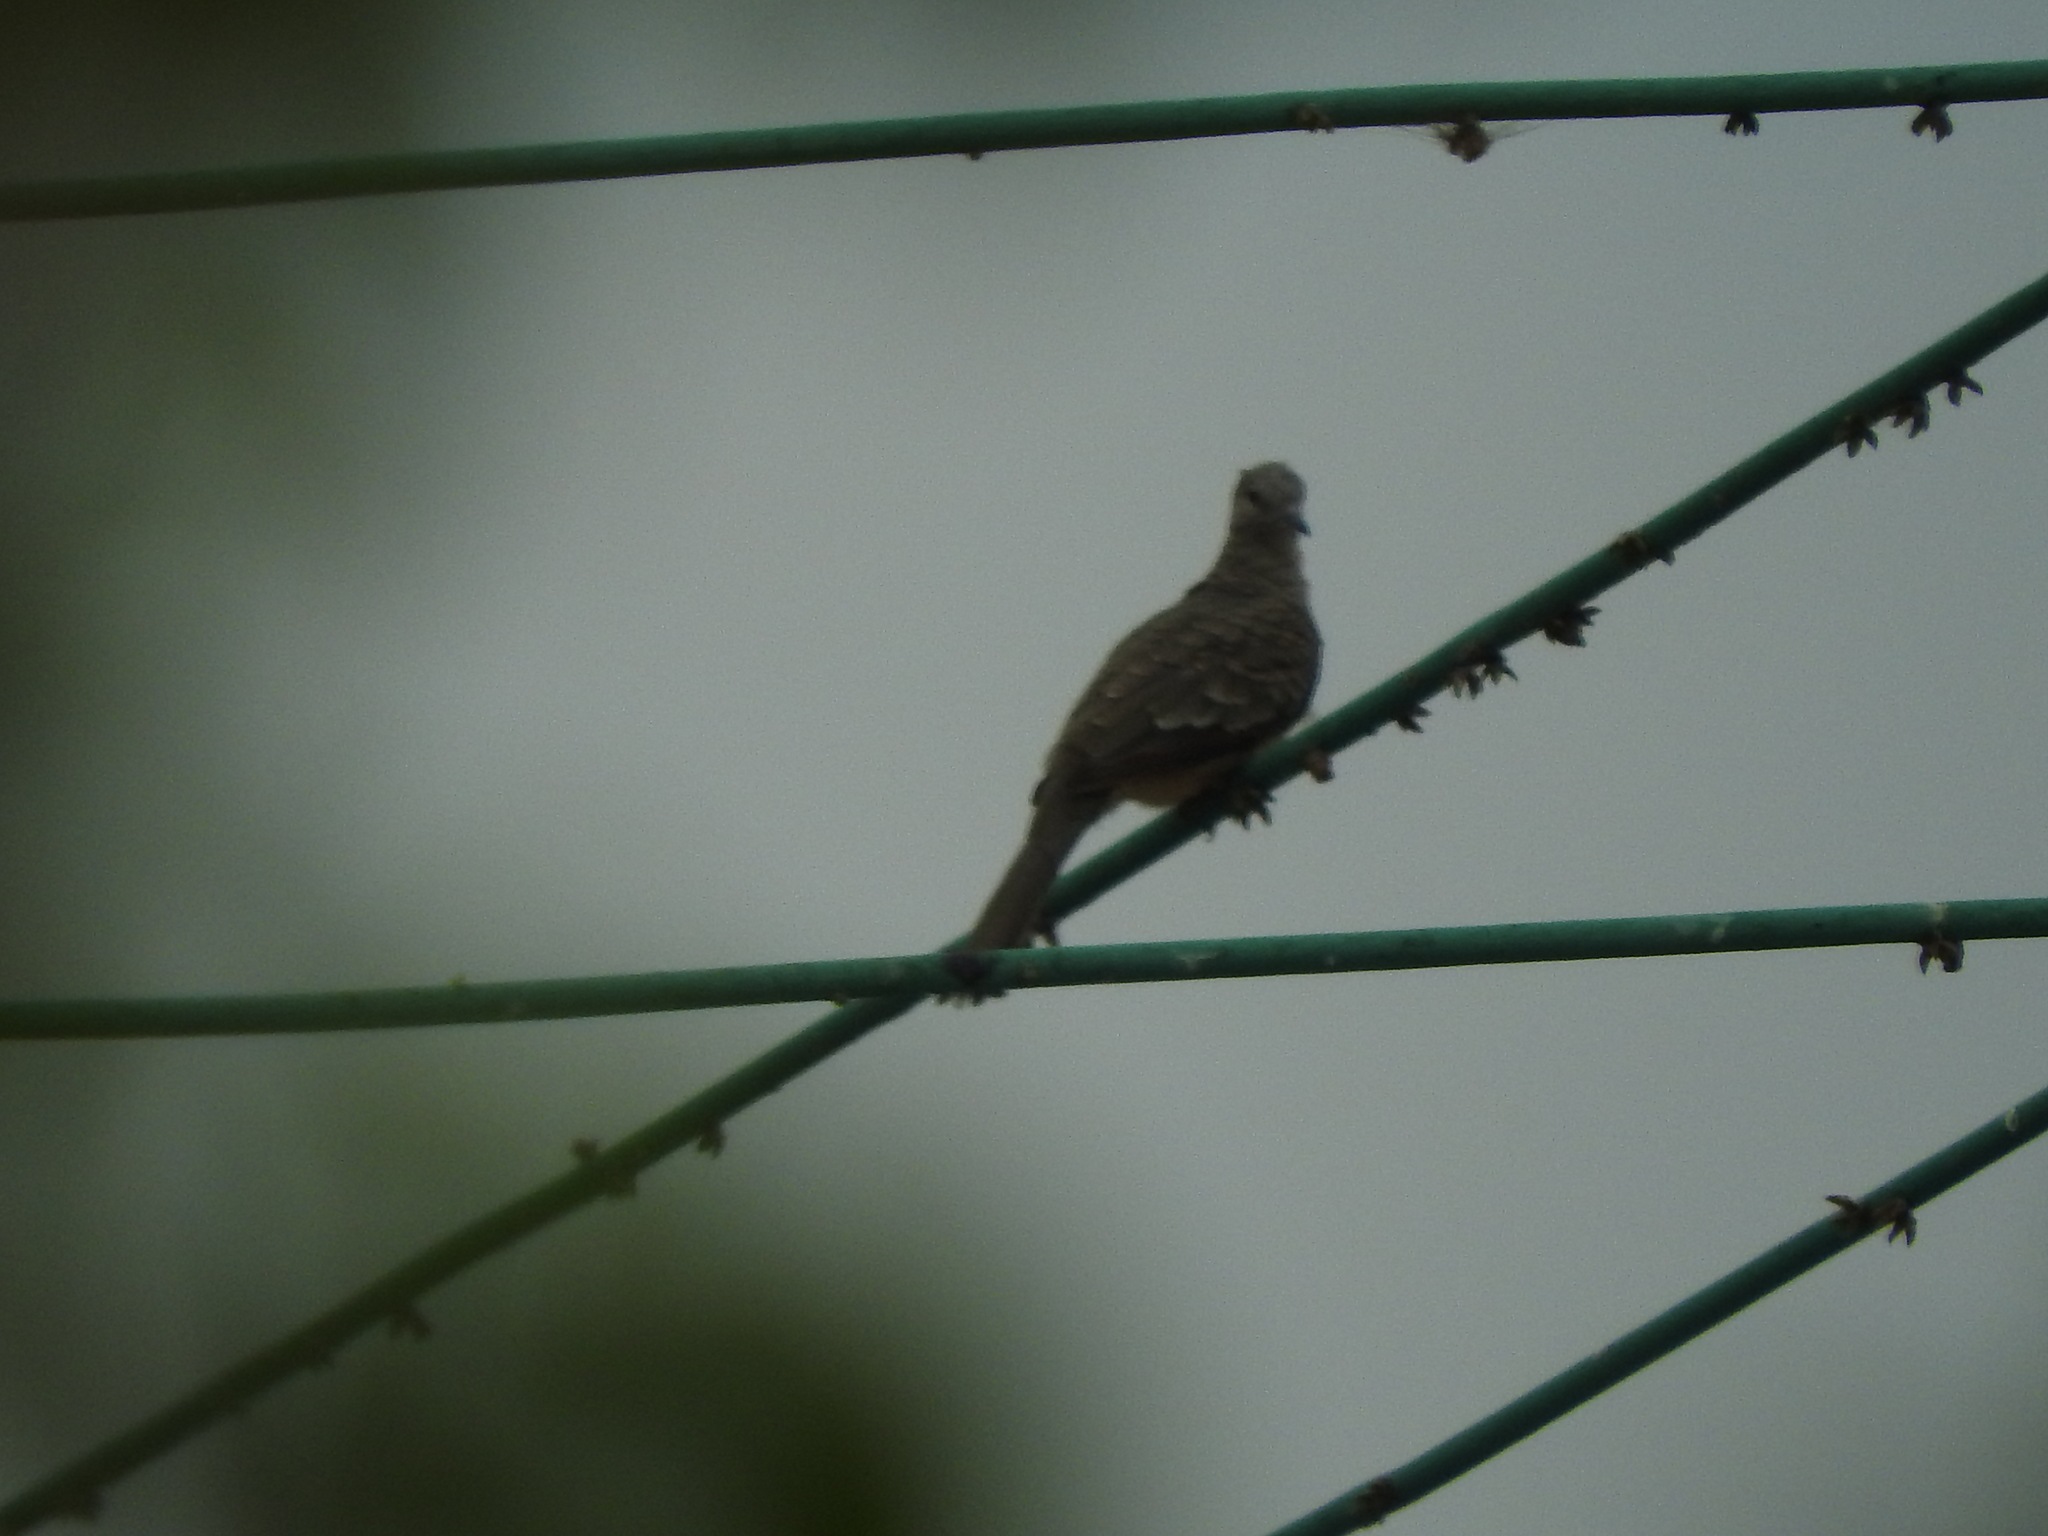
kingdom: Animalia
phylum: Chordata
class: Aves
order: Columbiformes
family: Columbidae
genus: Columbina
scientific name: Columbina inca
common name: Inca dove
